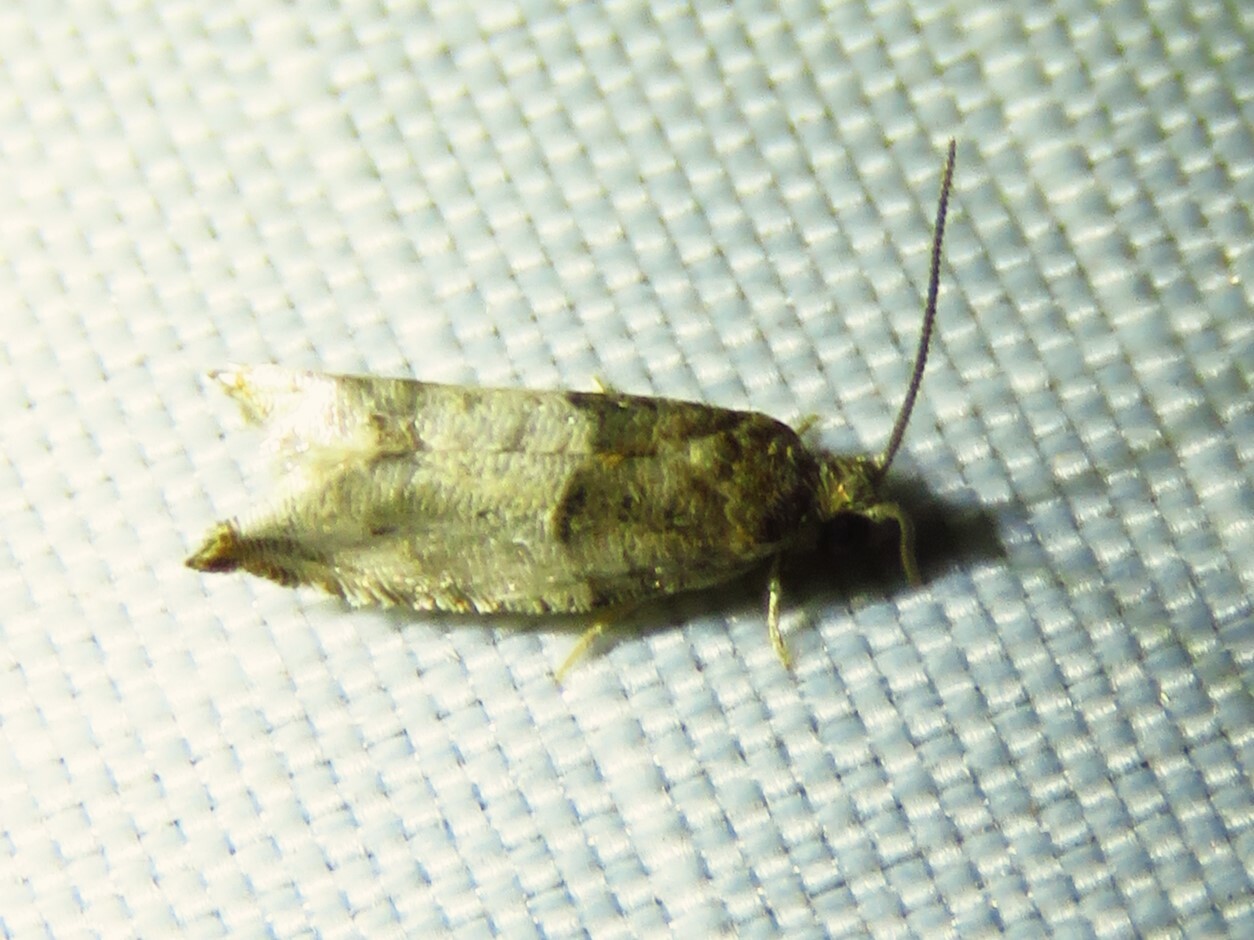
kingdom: Animalia
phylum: Arthropoda
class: Insecta
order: Lepidoptera
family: Tortricidae
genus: Rhopobota
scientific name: Rhopobota dietziana
